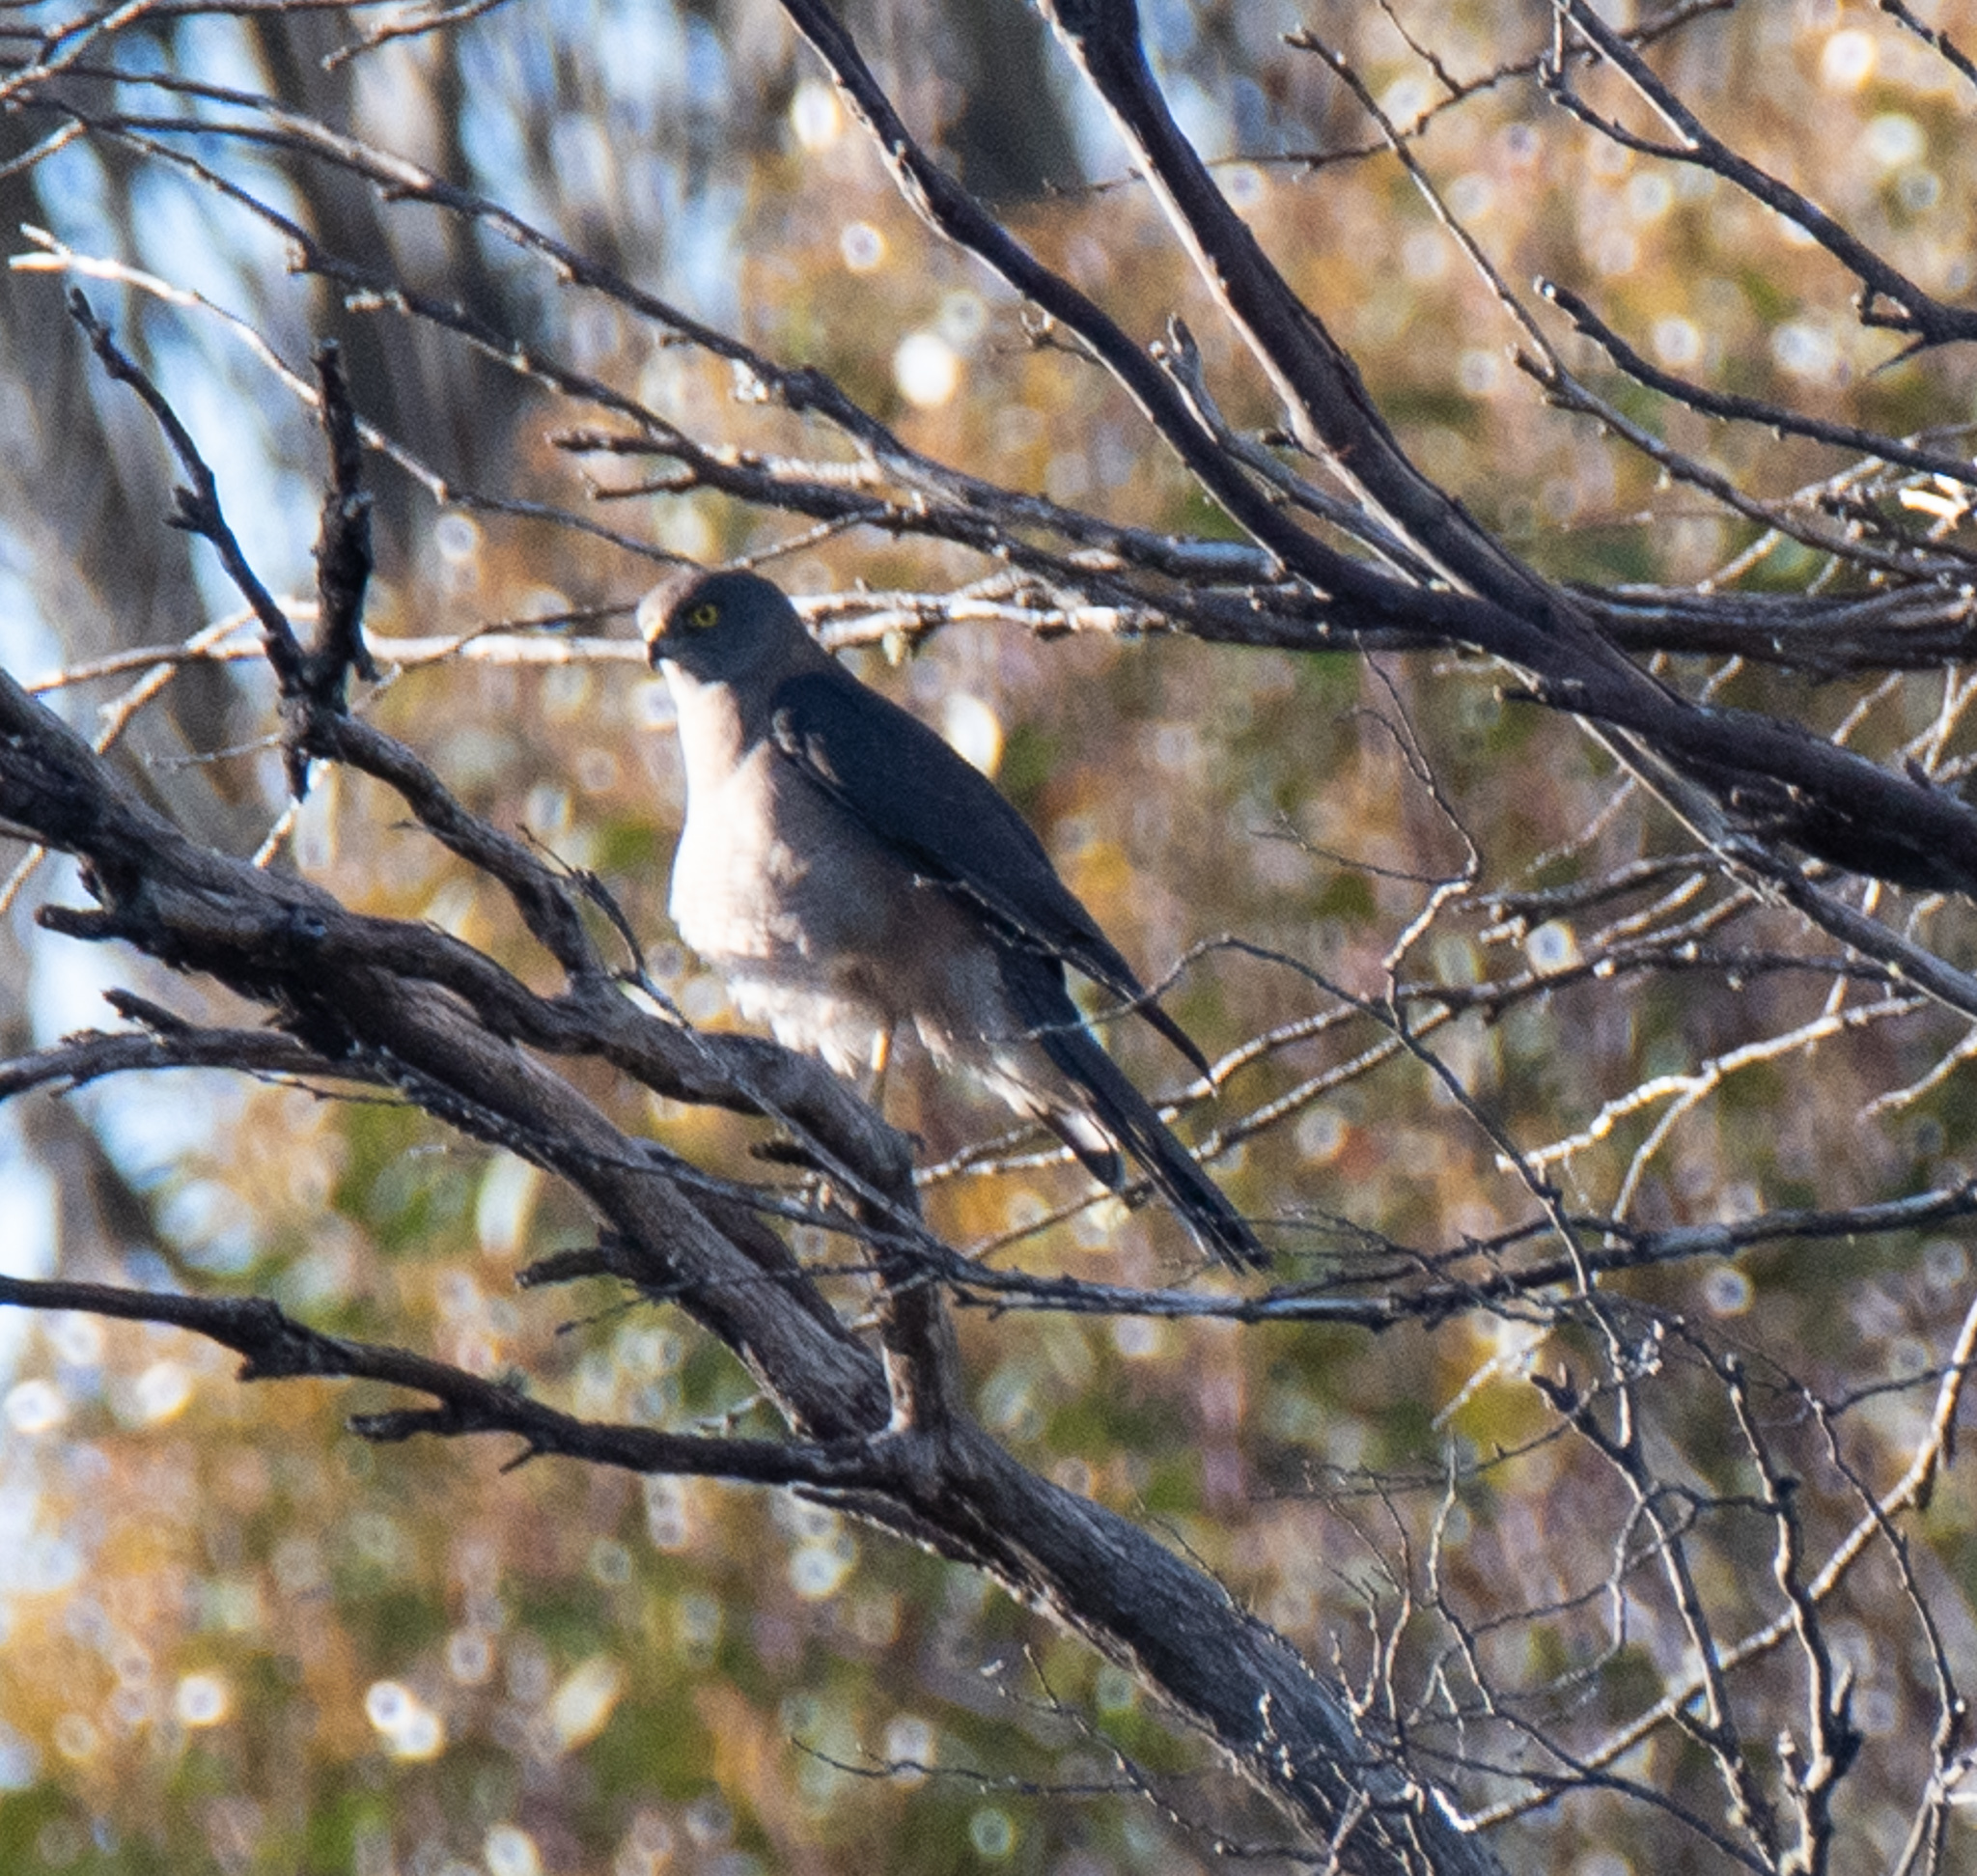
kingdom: Animalia
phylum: Chordata
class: Aves
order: Accipitriformes
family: Accipitridae
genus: Accipiter
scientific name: Accipiter fasciatus
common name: Brown goshawk
